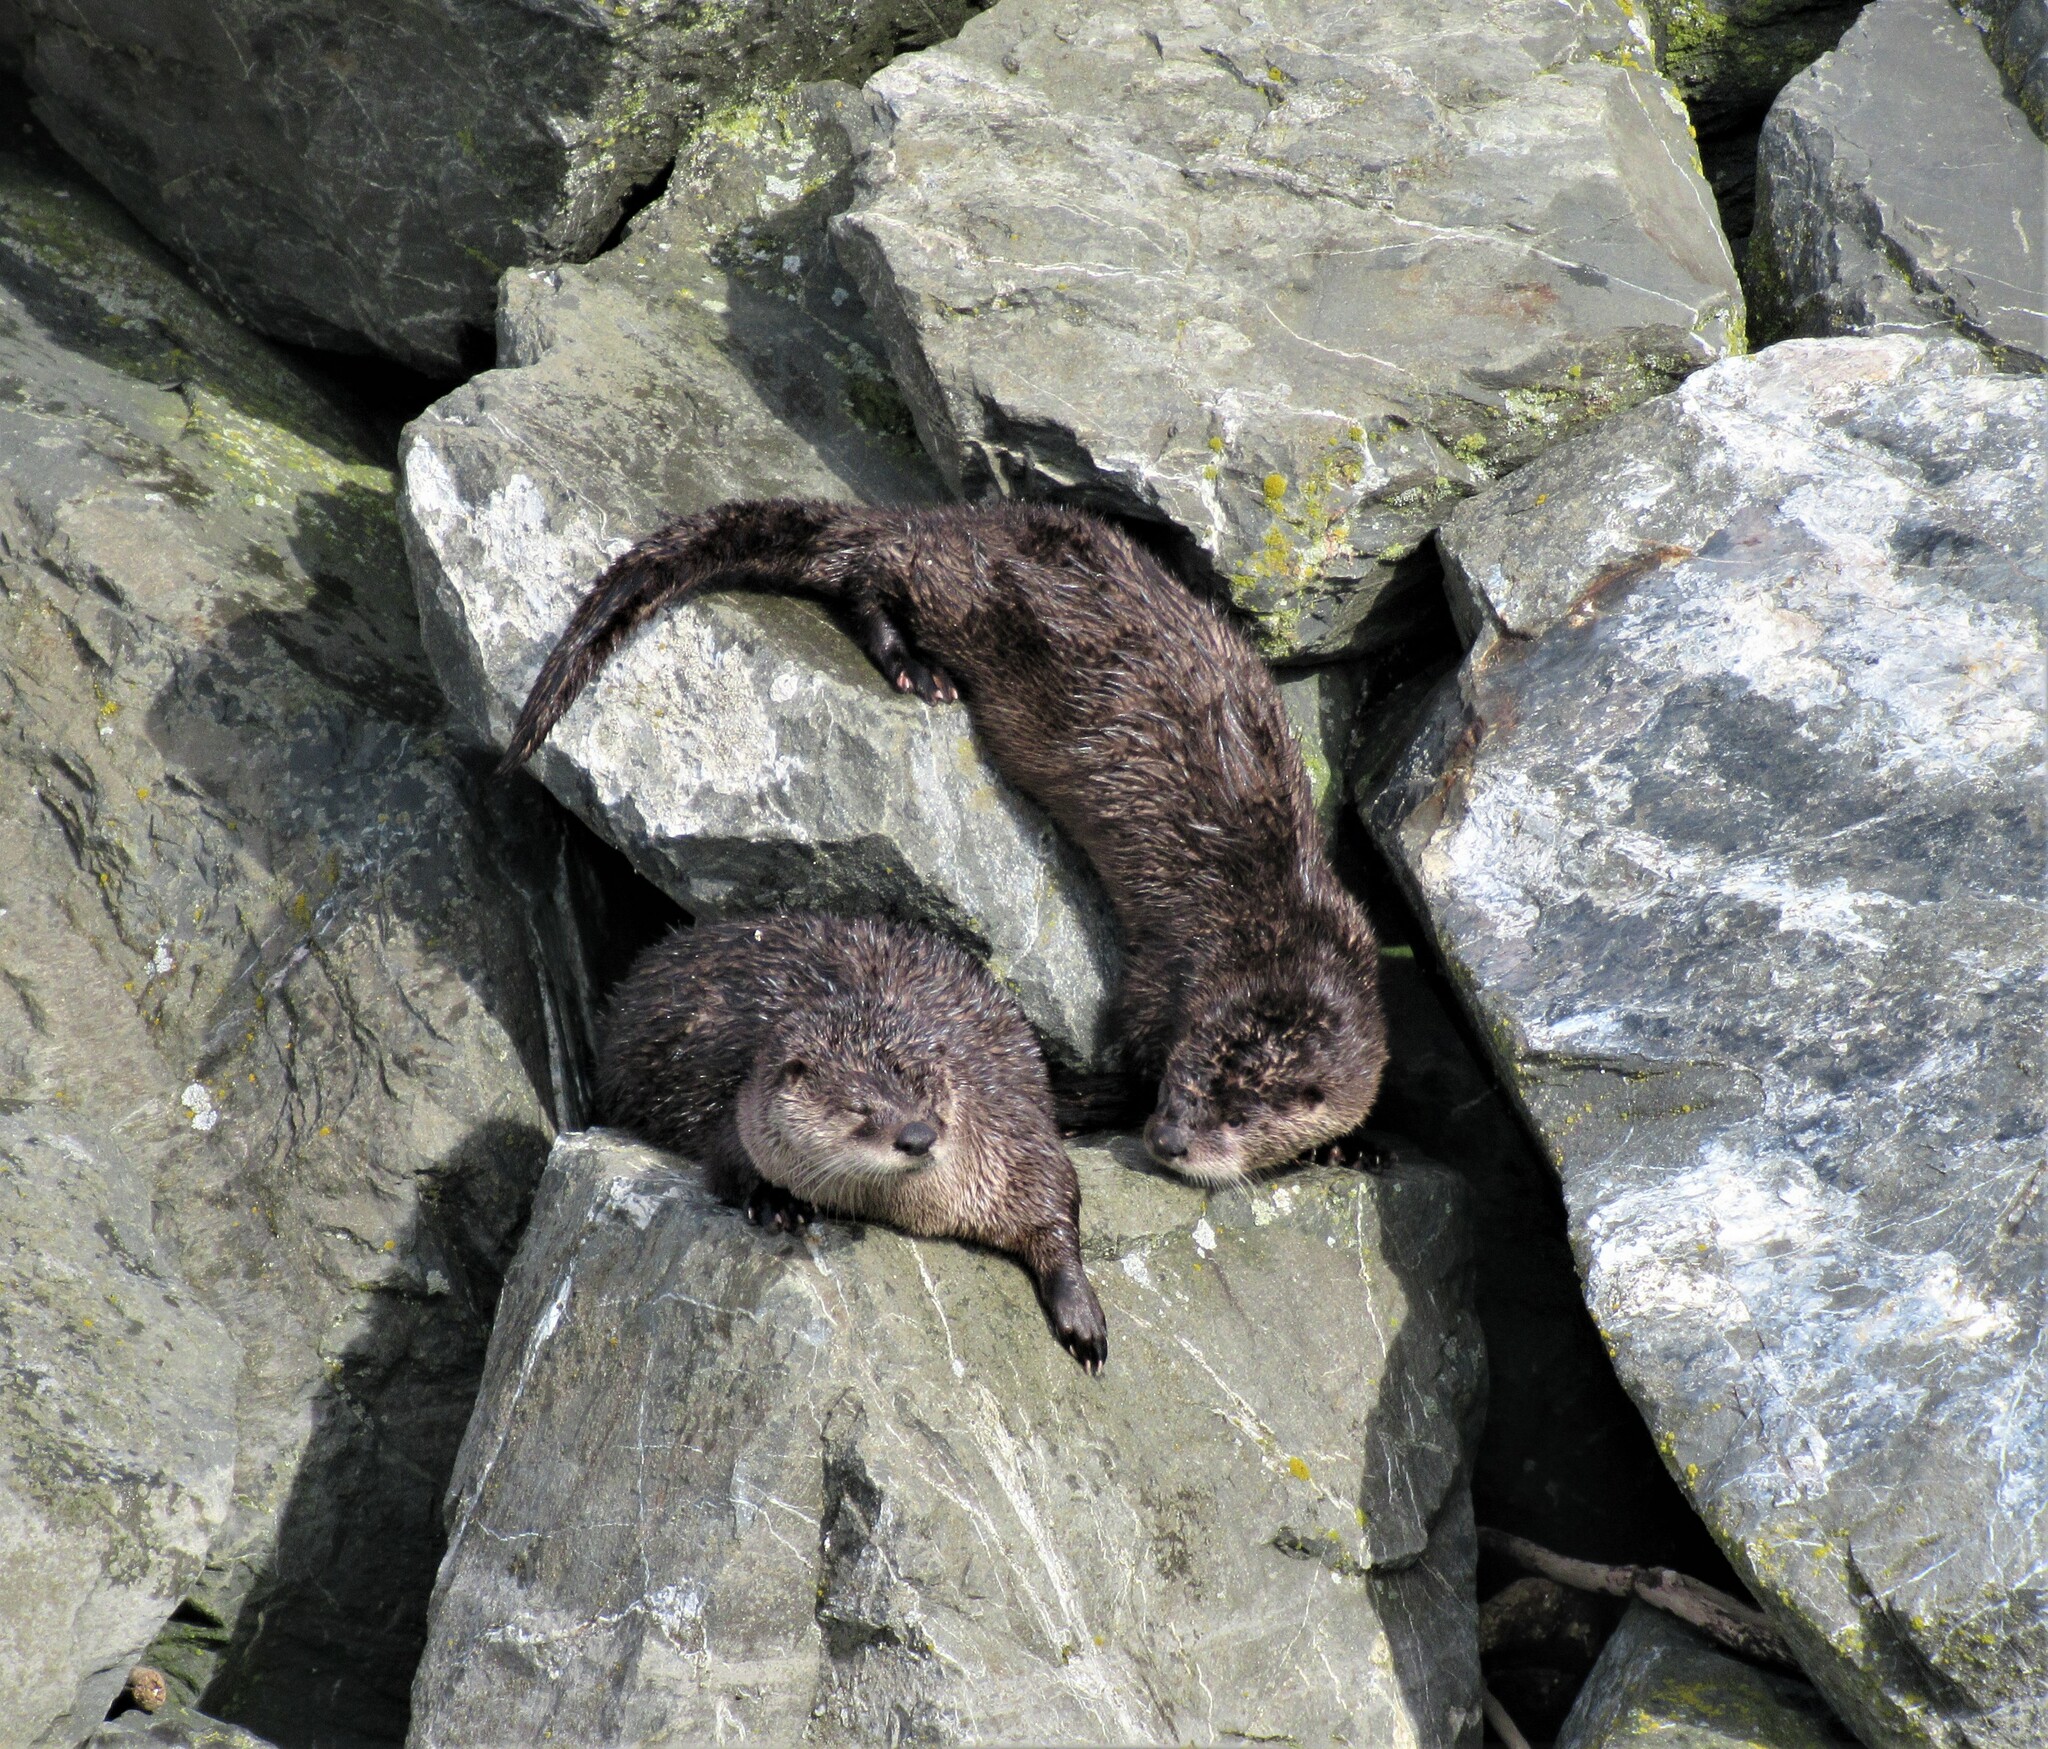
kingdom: Animalia
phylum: Chordata
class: Mammalia
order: Carnivora
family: Mustelidae
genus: Lontra
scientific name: Lontra canadensis
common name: North american river otter
